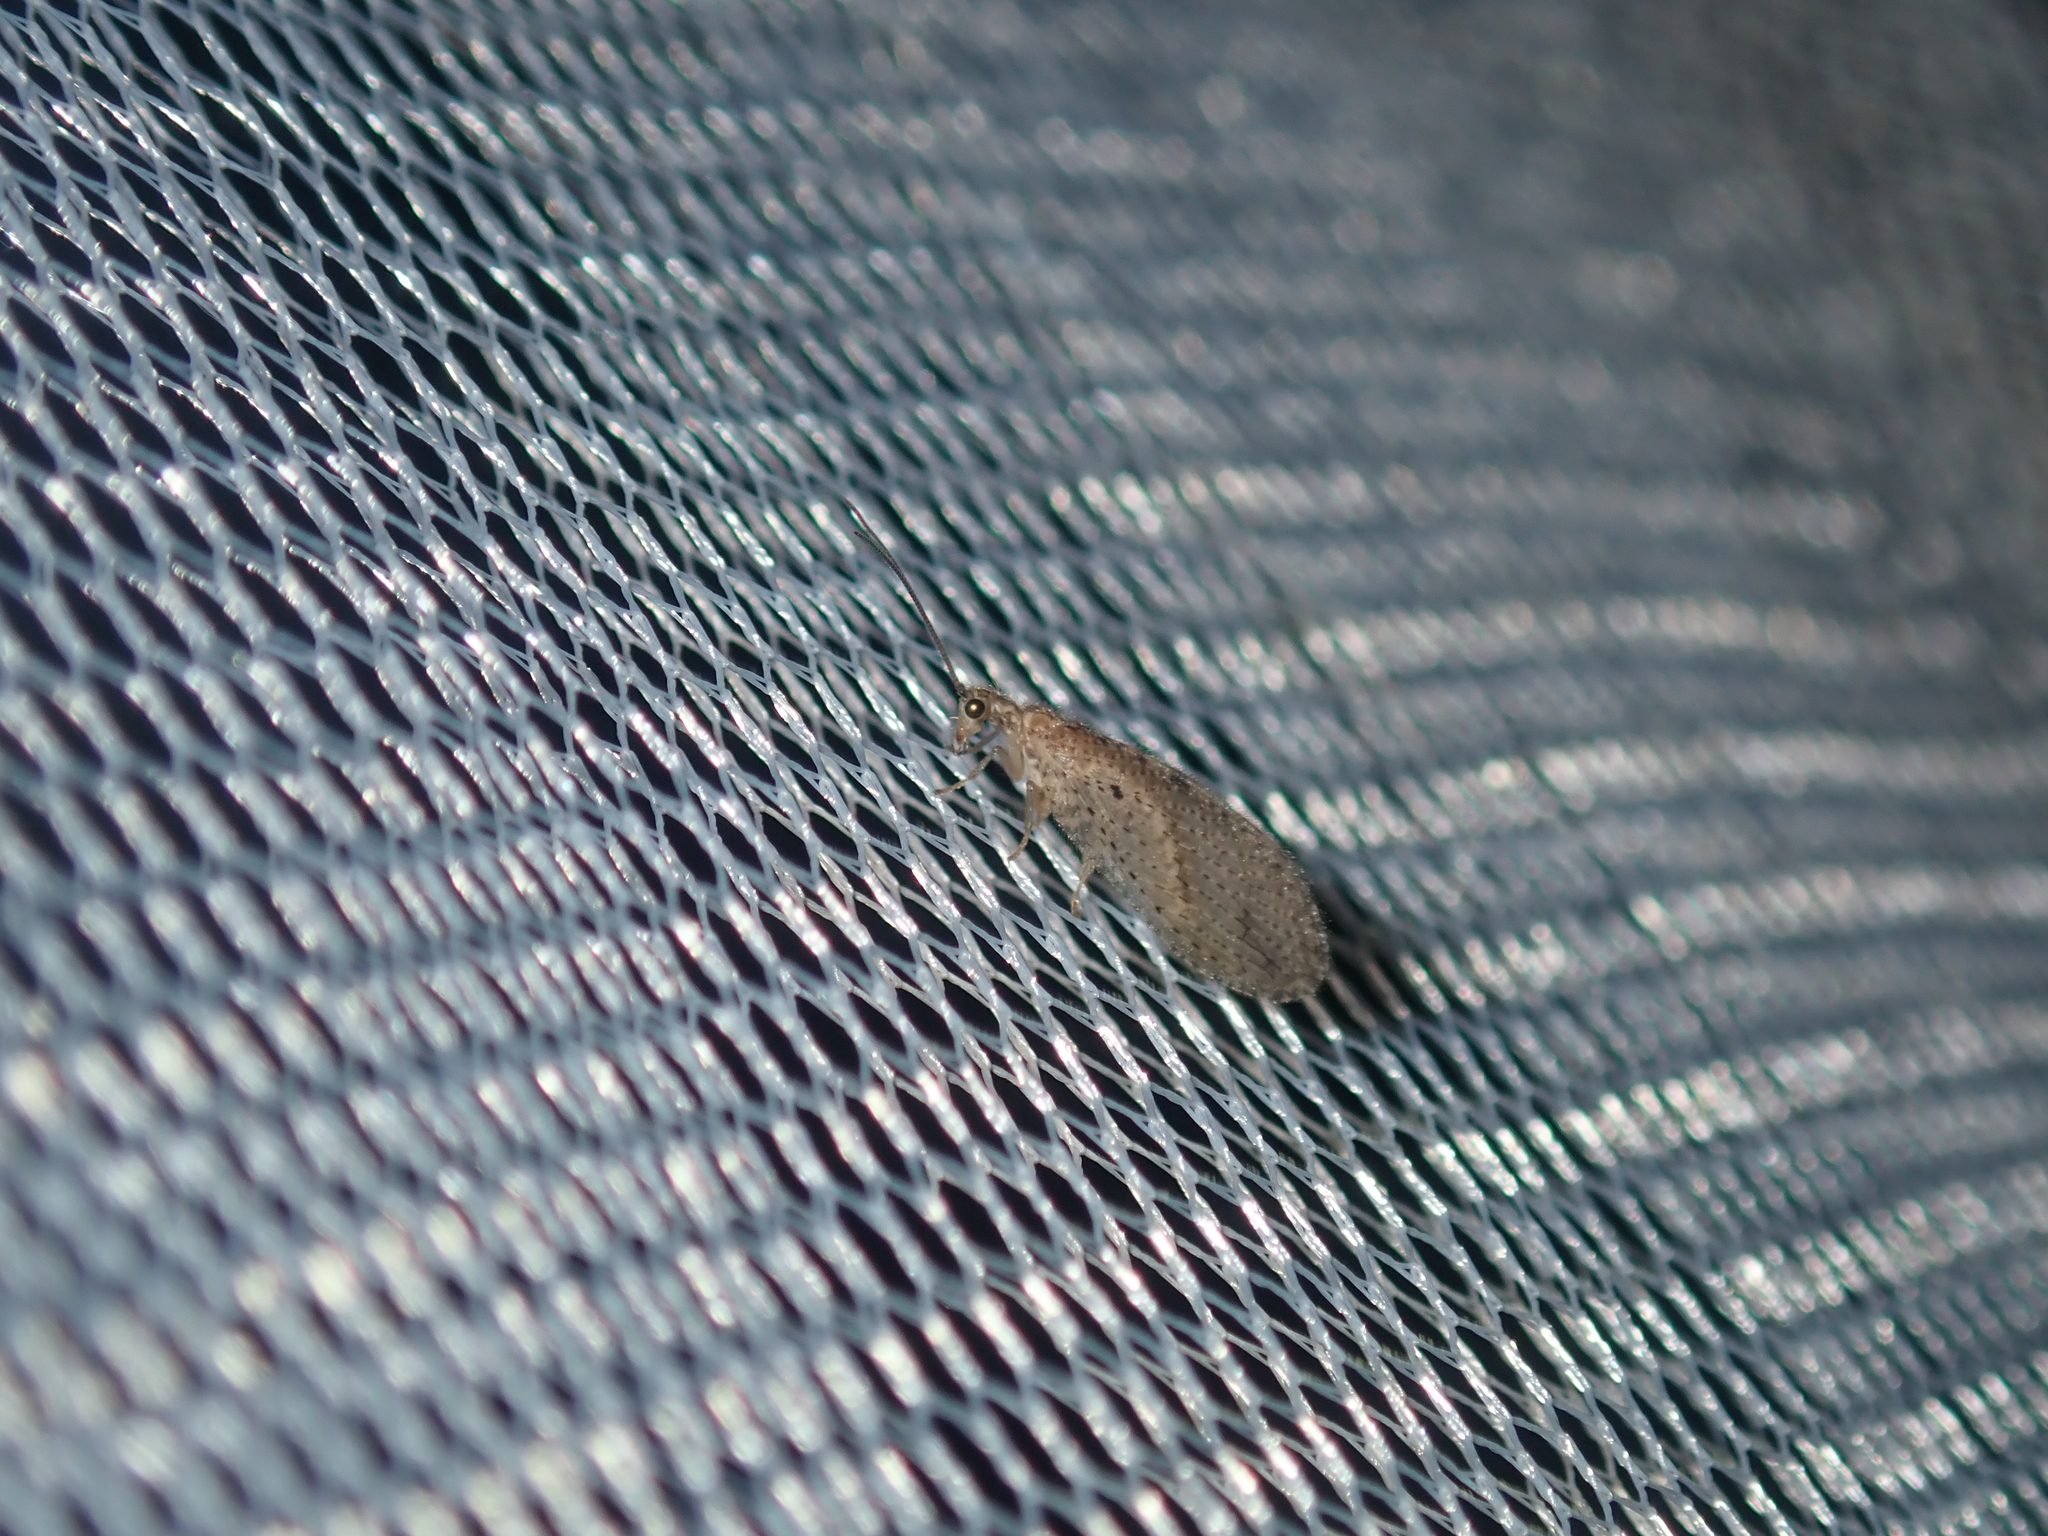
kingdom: Animalia
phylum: Arthropoda
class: Insecta
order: Neuroptera
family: Hemerobiidae
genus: Micromus
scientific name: Micromus tasmaniae
